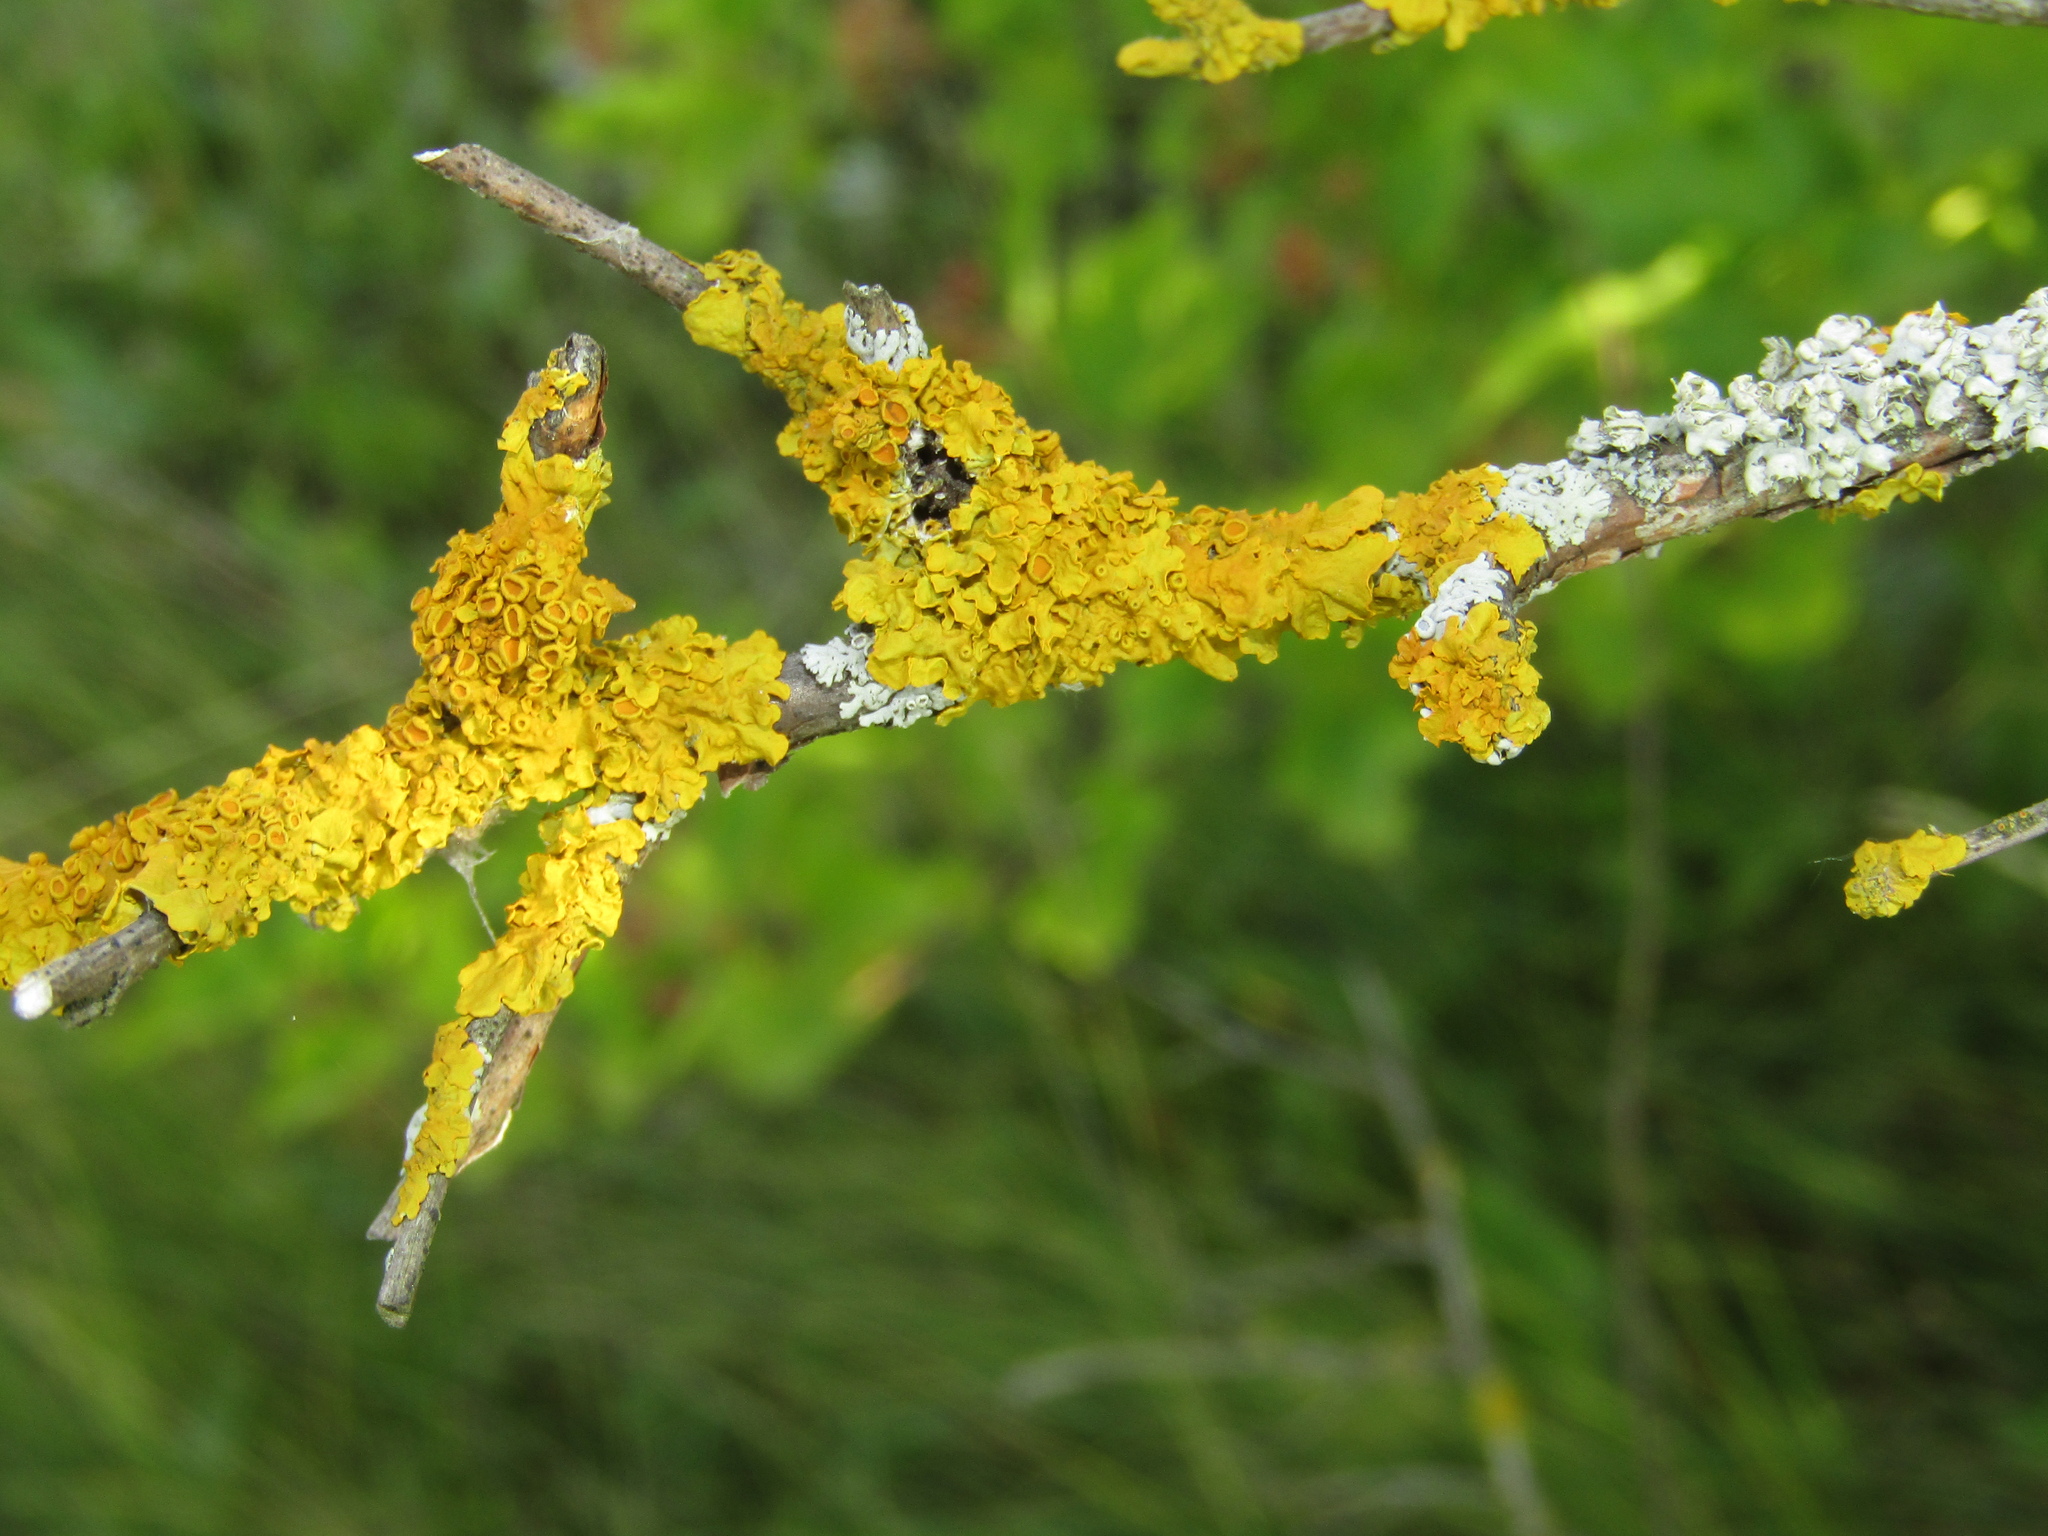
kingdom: Fungi
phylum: Ascomycota
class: Lecanoromycetes
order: Teloschistales
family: Teloschistaceae
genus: Xanthoria
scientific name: Xanthoria parietina
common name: Common orange lichen
